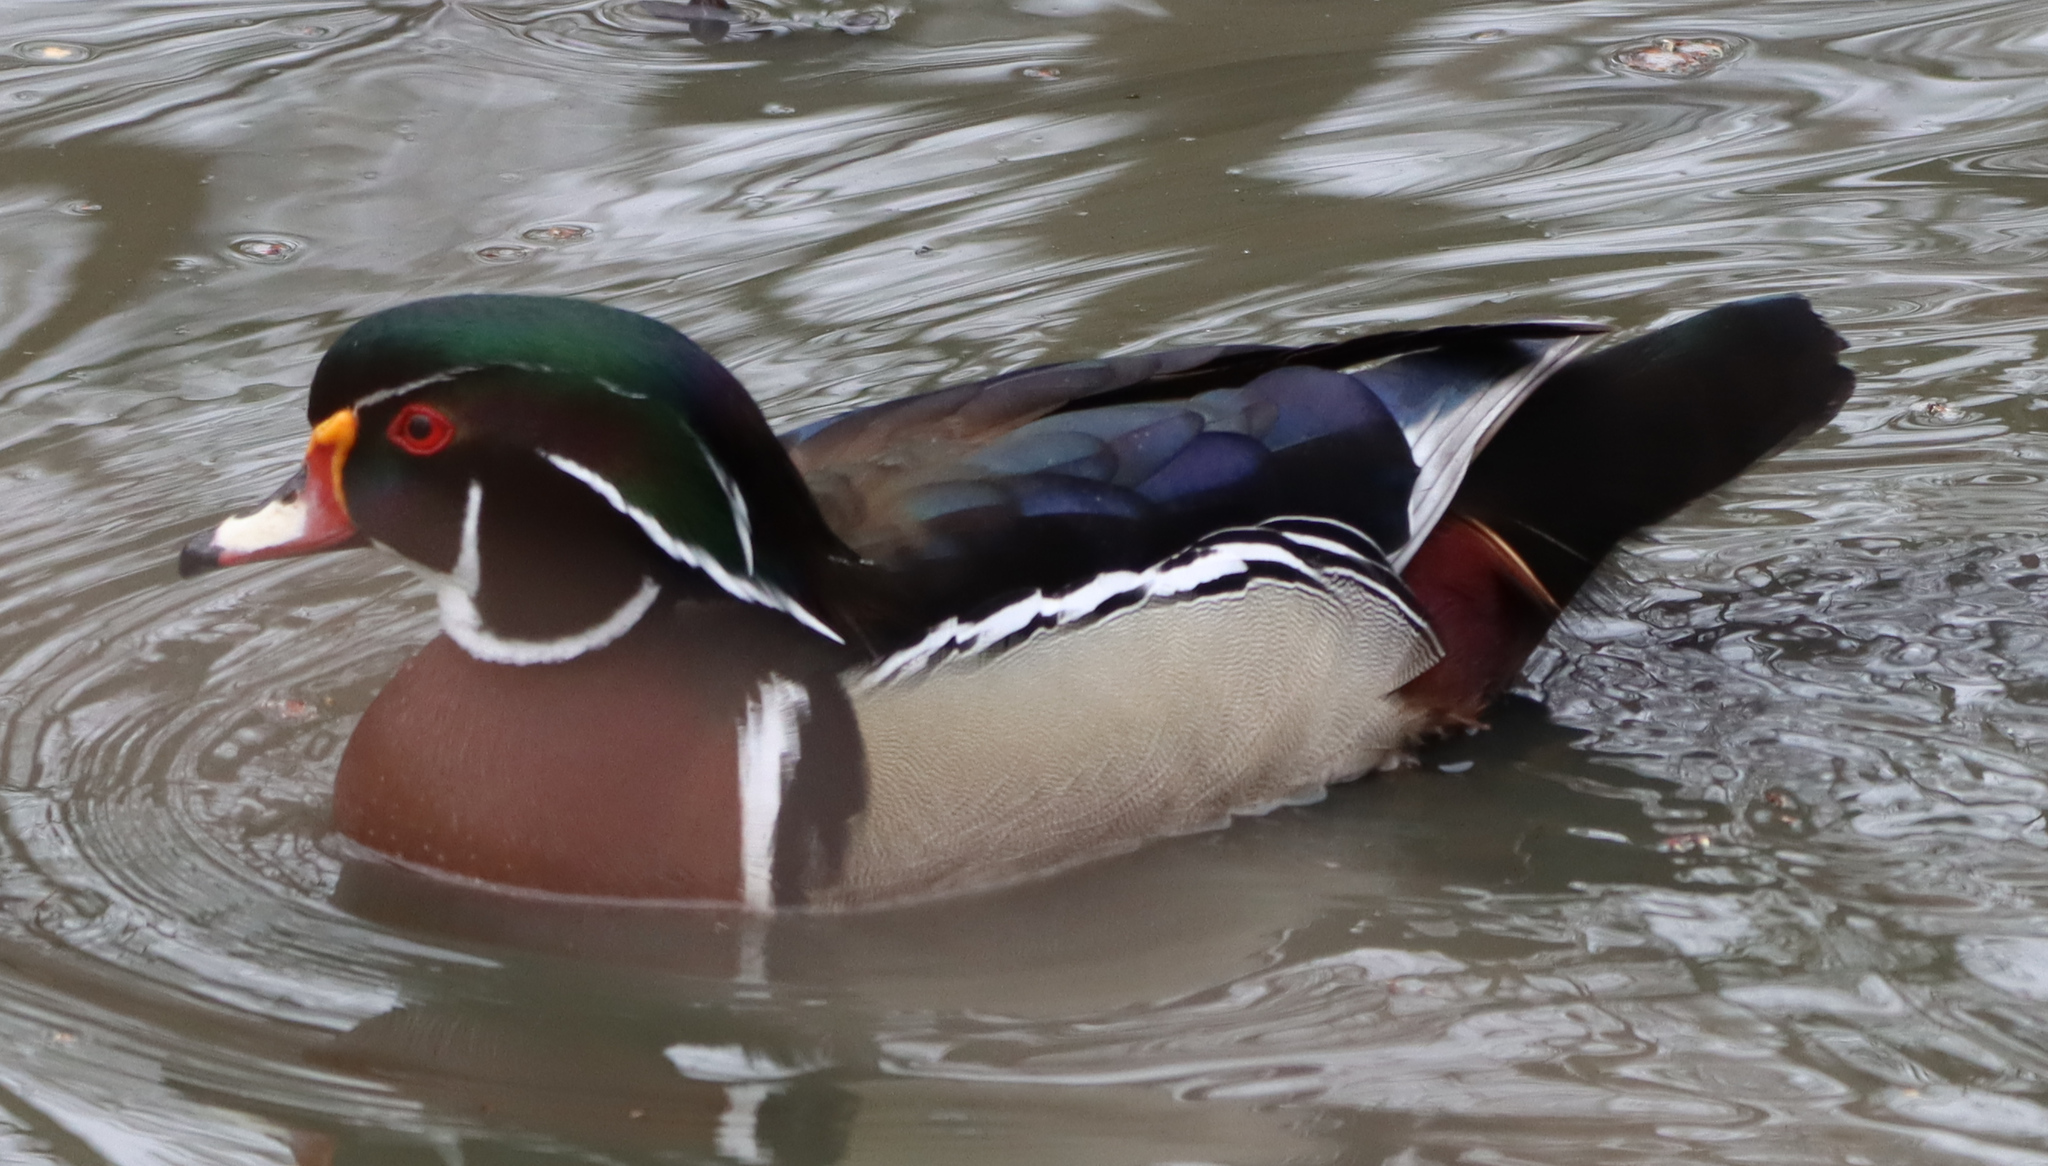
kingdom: Animalia
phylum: Chordata
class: Aves
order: Anseriformes
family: Anatidae
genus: Aix
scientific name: Aix sponsa
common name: Wood duck
